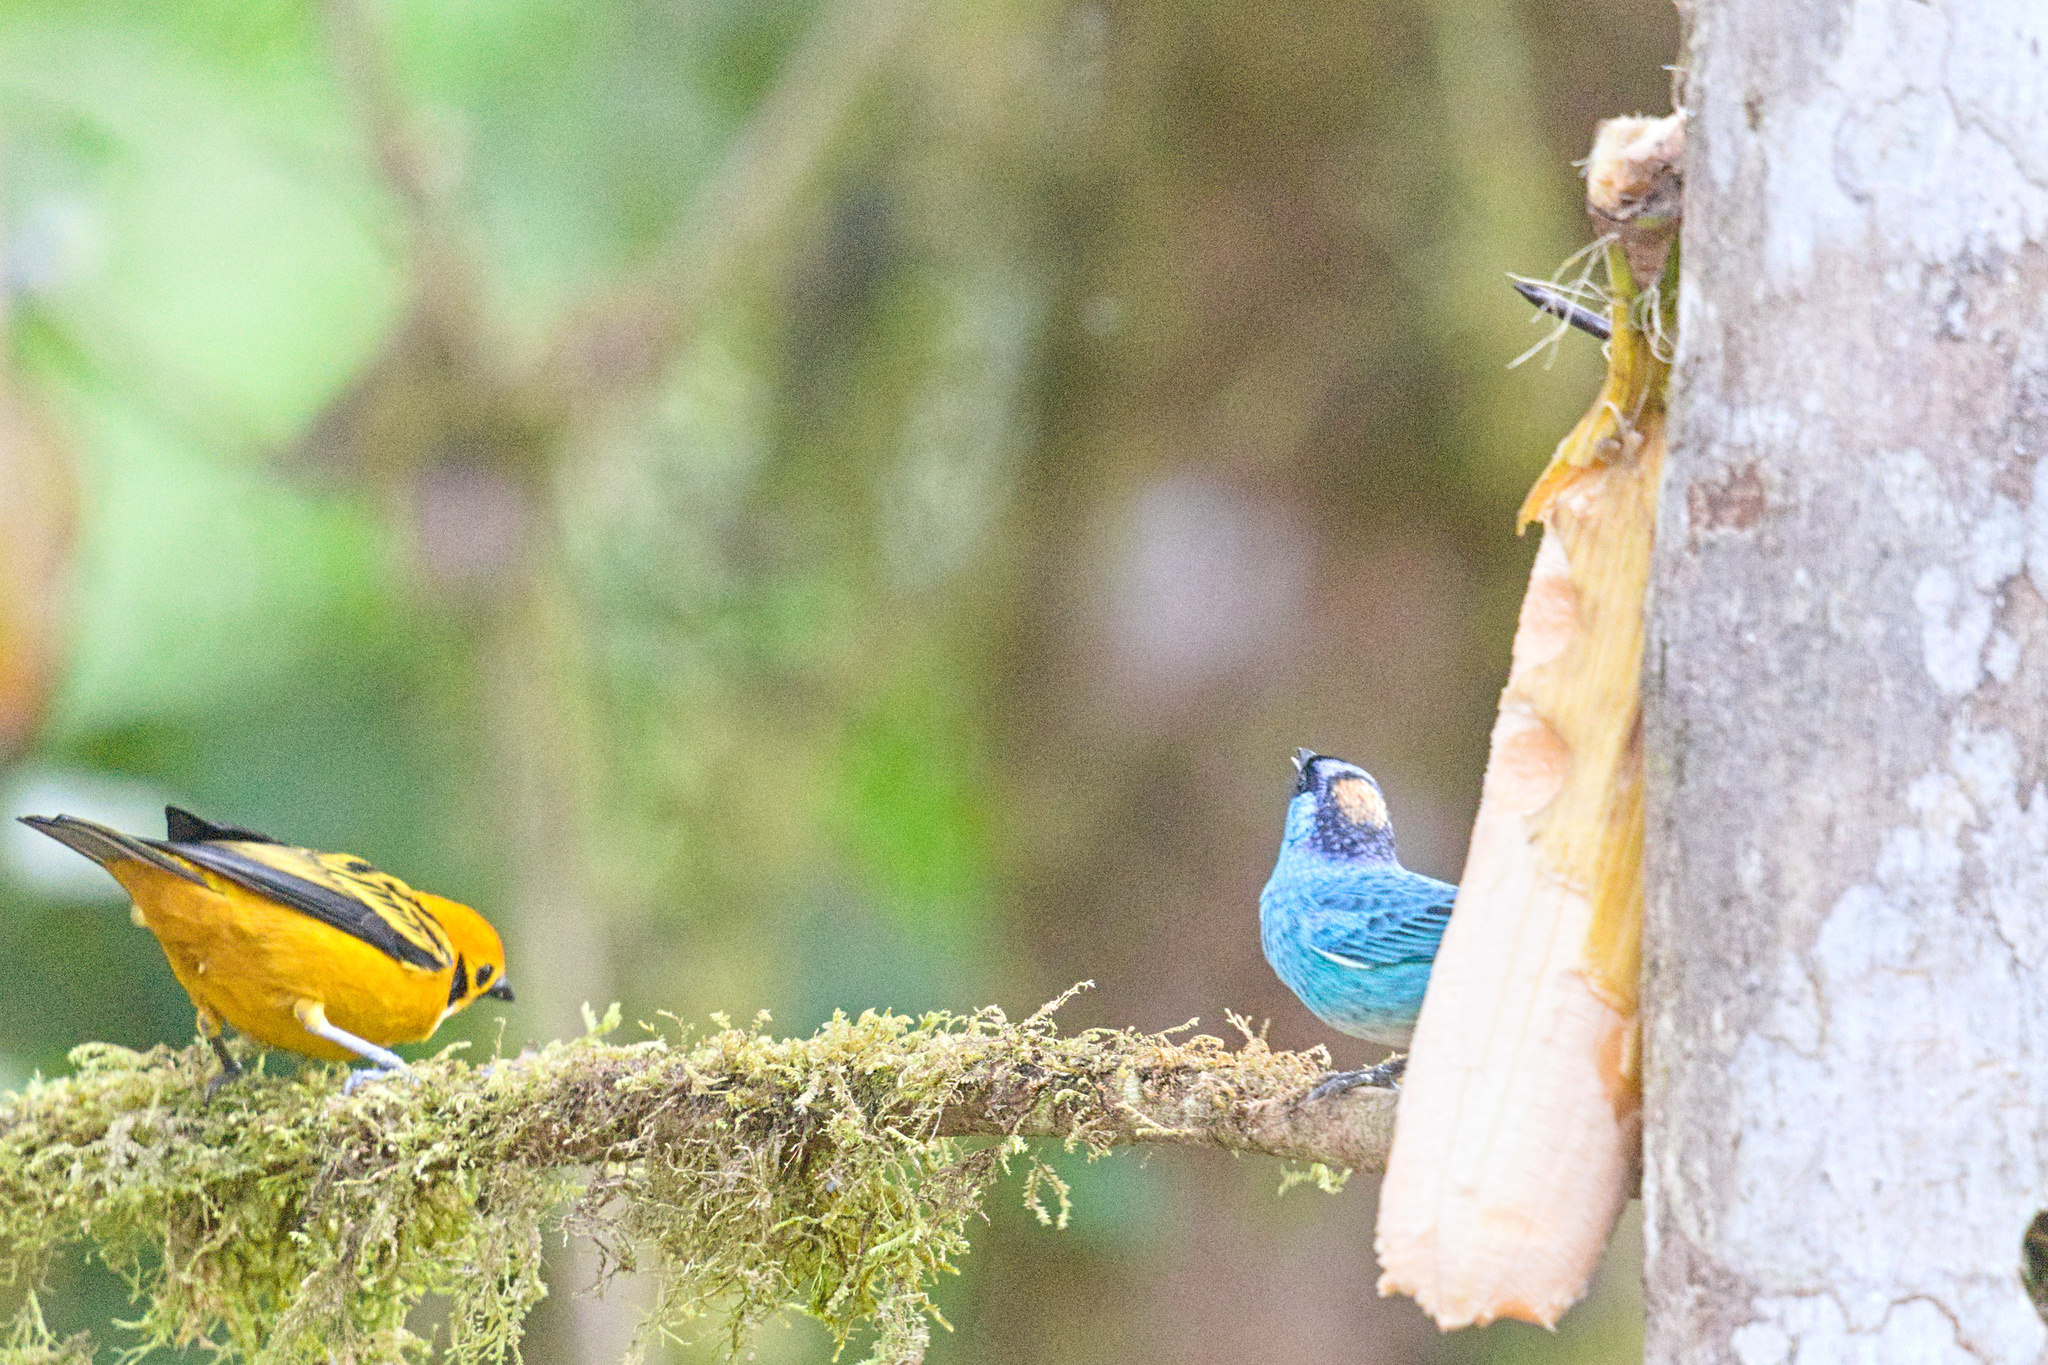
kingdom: Animalia
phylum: Chordata
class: Aves
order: Passeriformes
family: Thraupidae
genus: Tangara
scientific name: Tangara arthus
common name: Golden tanager
